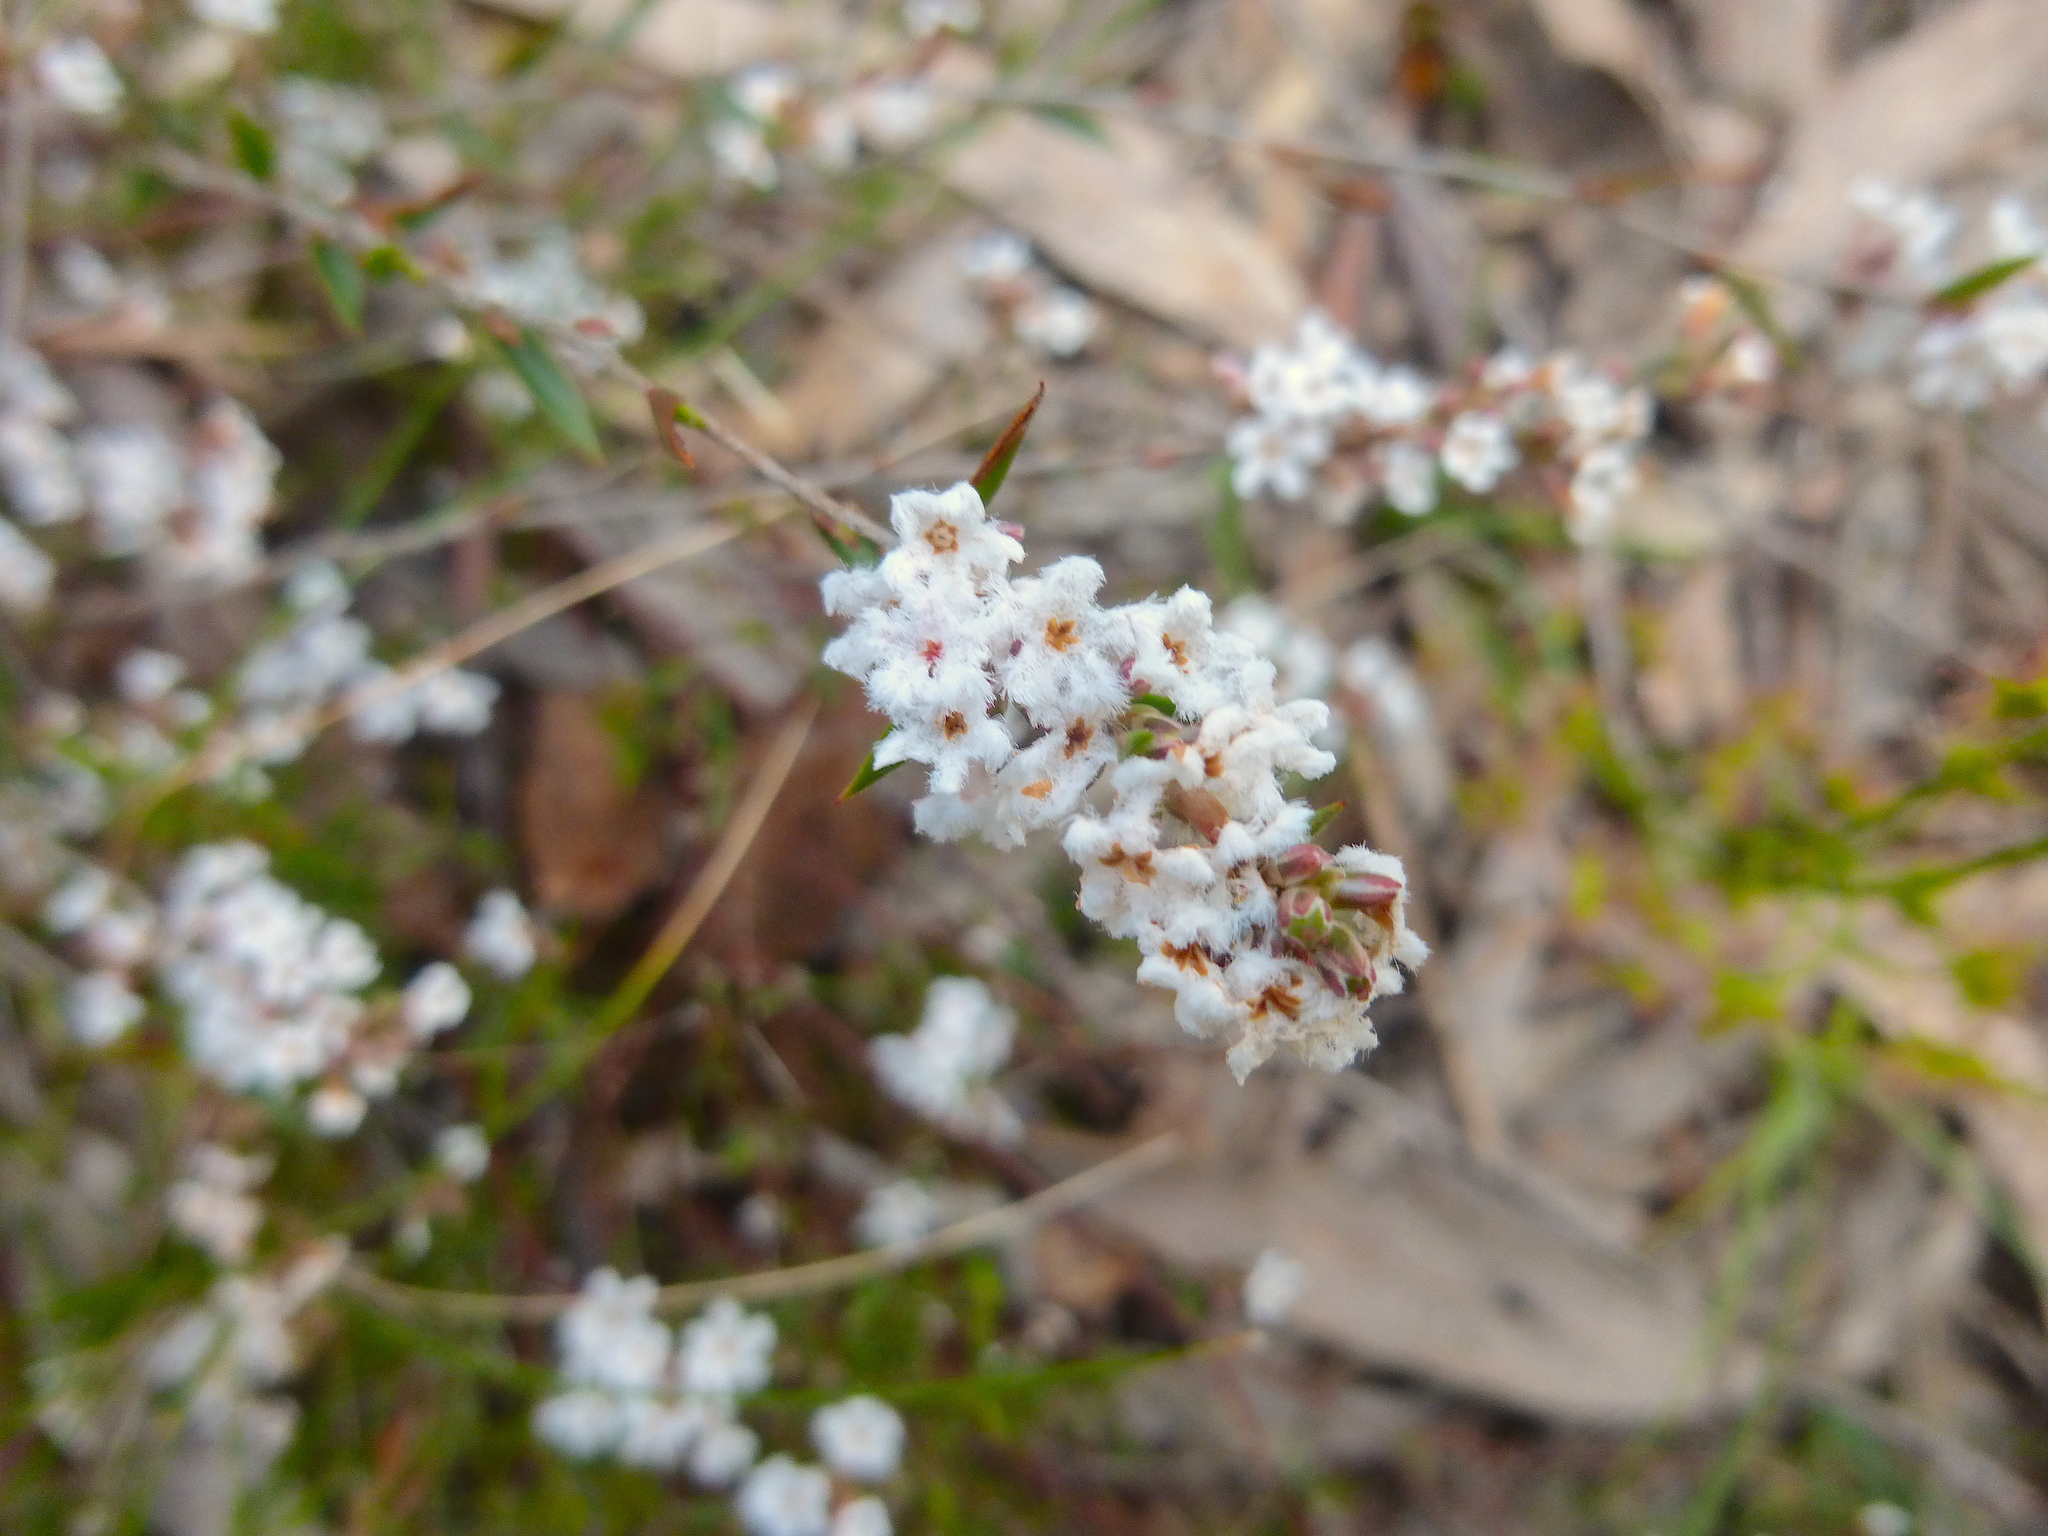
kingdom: Plantae
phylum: Tracheophyta
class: Magnoliopsida
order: Ericales
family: Ericaceae
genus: Leucopogon
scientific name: Leucopogon virgatus
